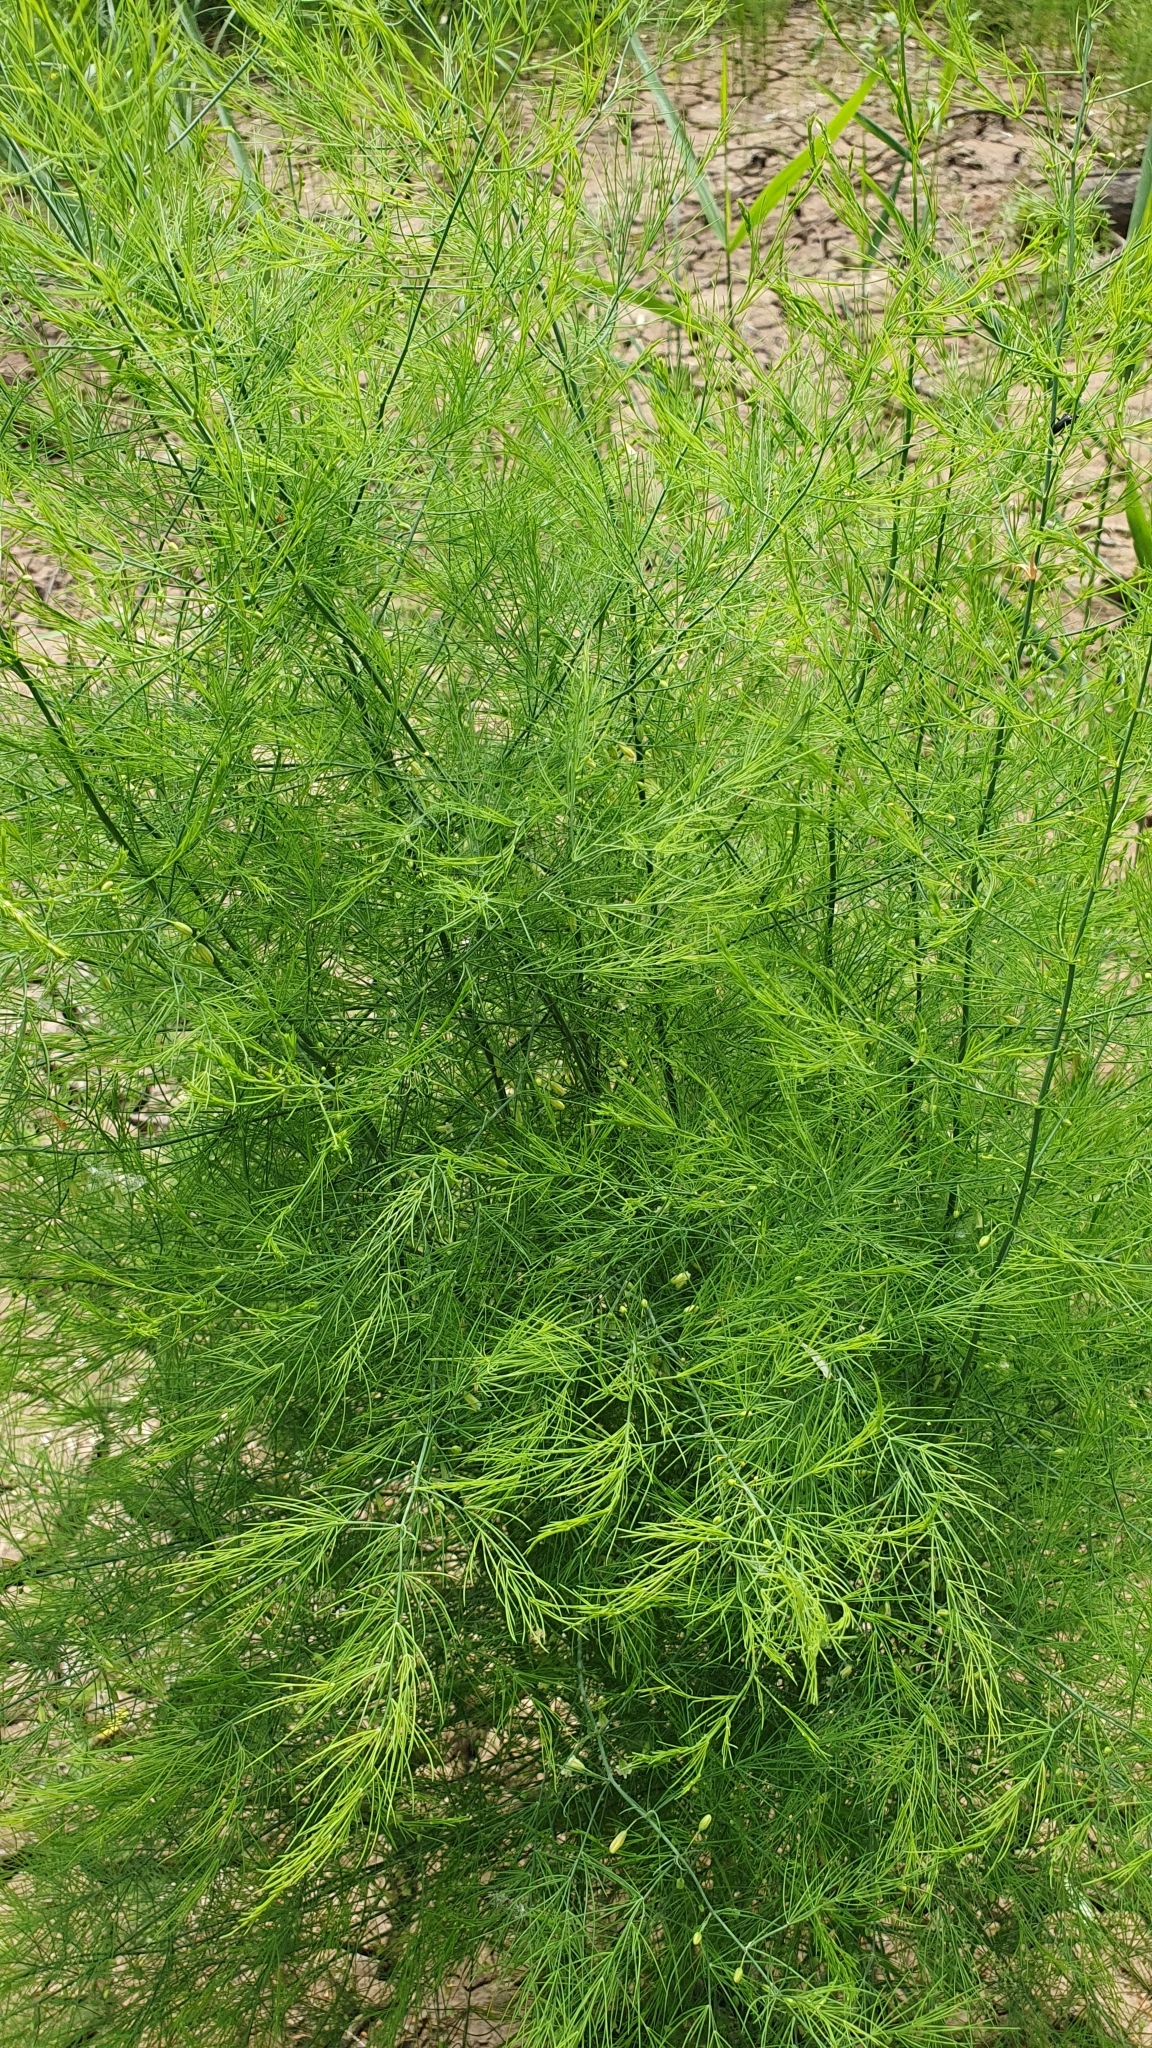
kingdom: Plantae
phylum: Tracheophyta
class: Liliopsida
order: Asparagales
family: Asparagaceae
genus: Asparagus
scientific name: Asparagus officinalis
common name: Garden asparagus
